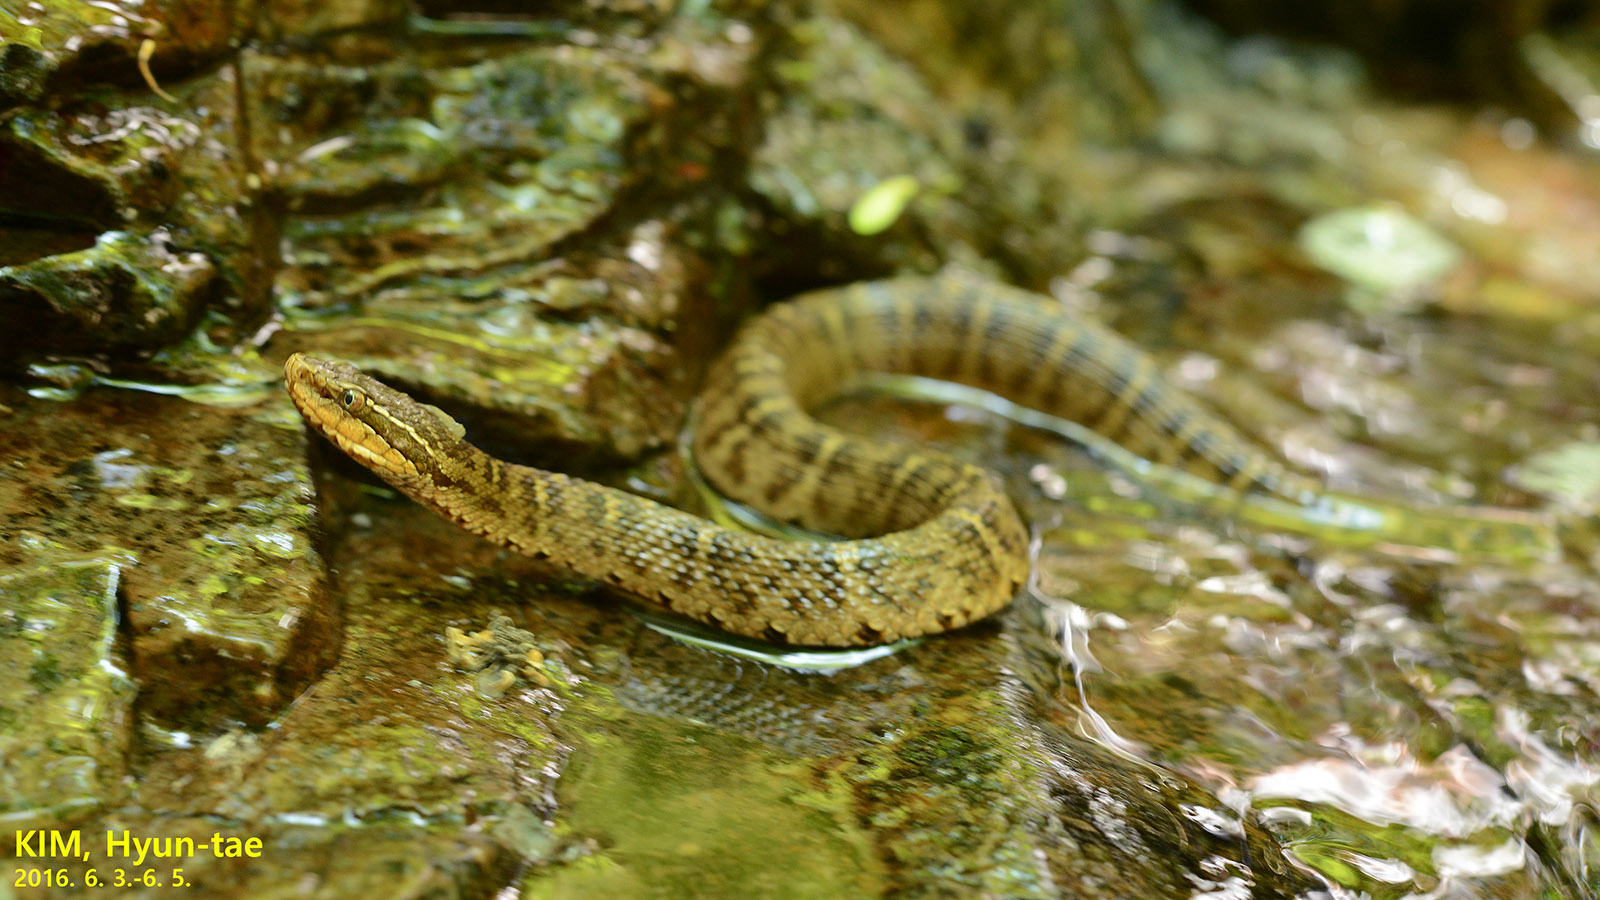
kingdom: Animalia
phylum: Chordata
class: Squamata
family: Viperidae
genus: Gloydius
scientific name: Gloydius ussuriensis
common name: Ussuri mamushi
